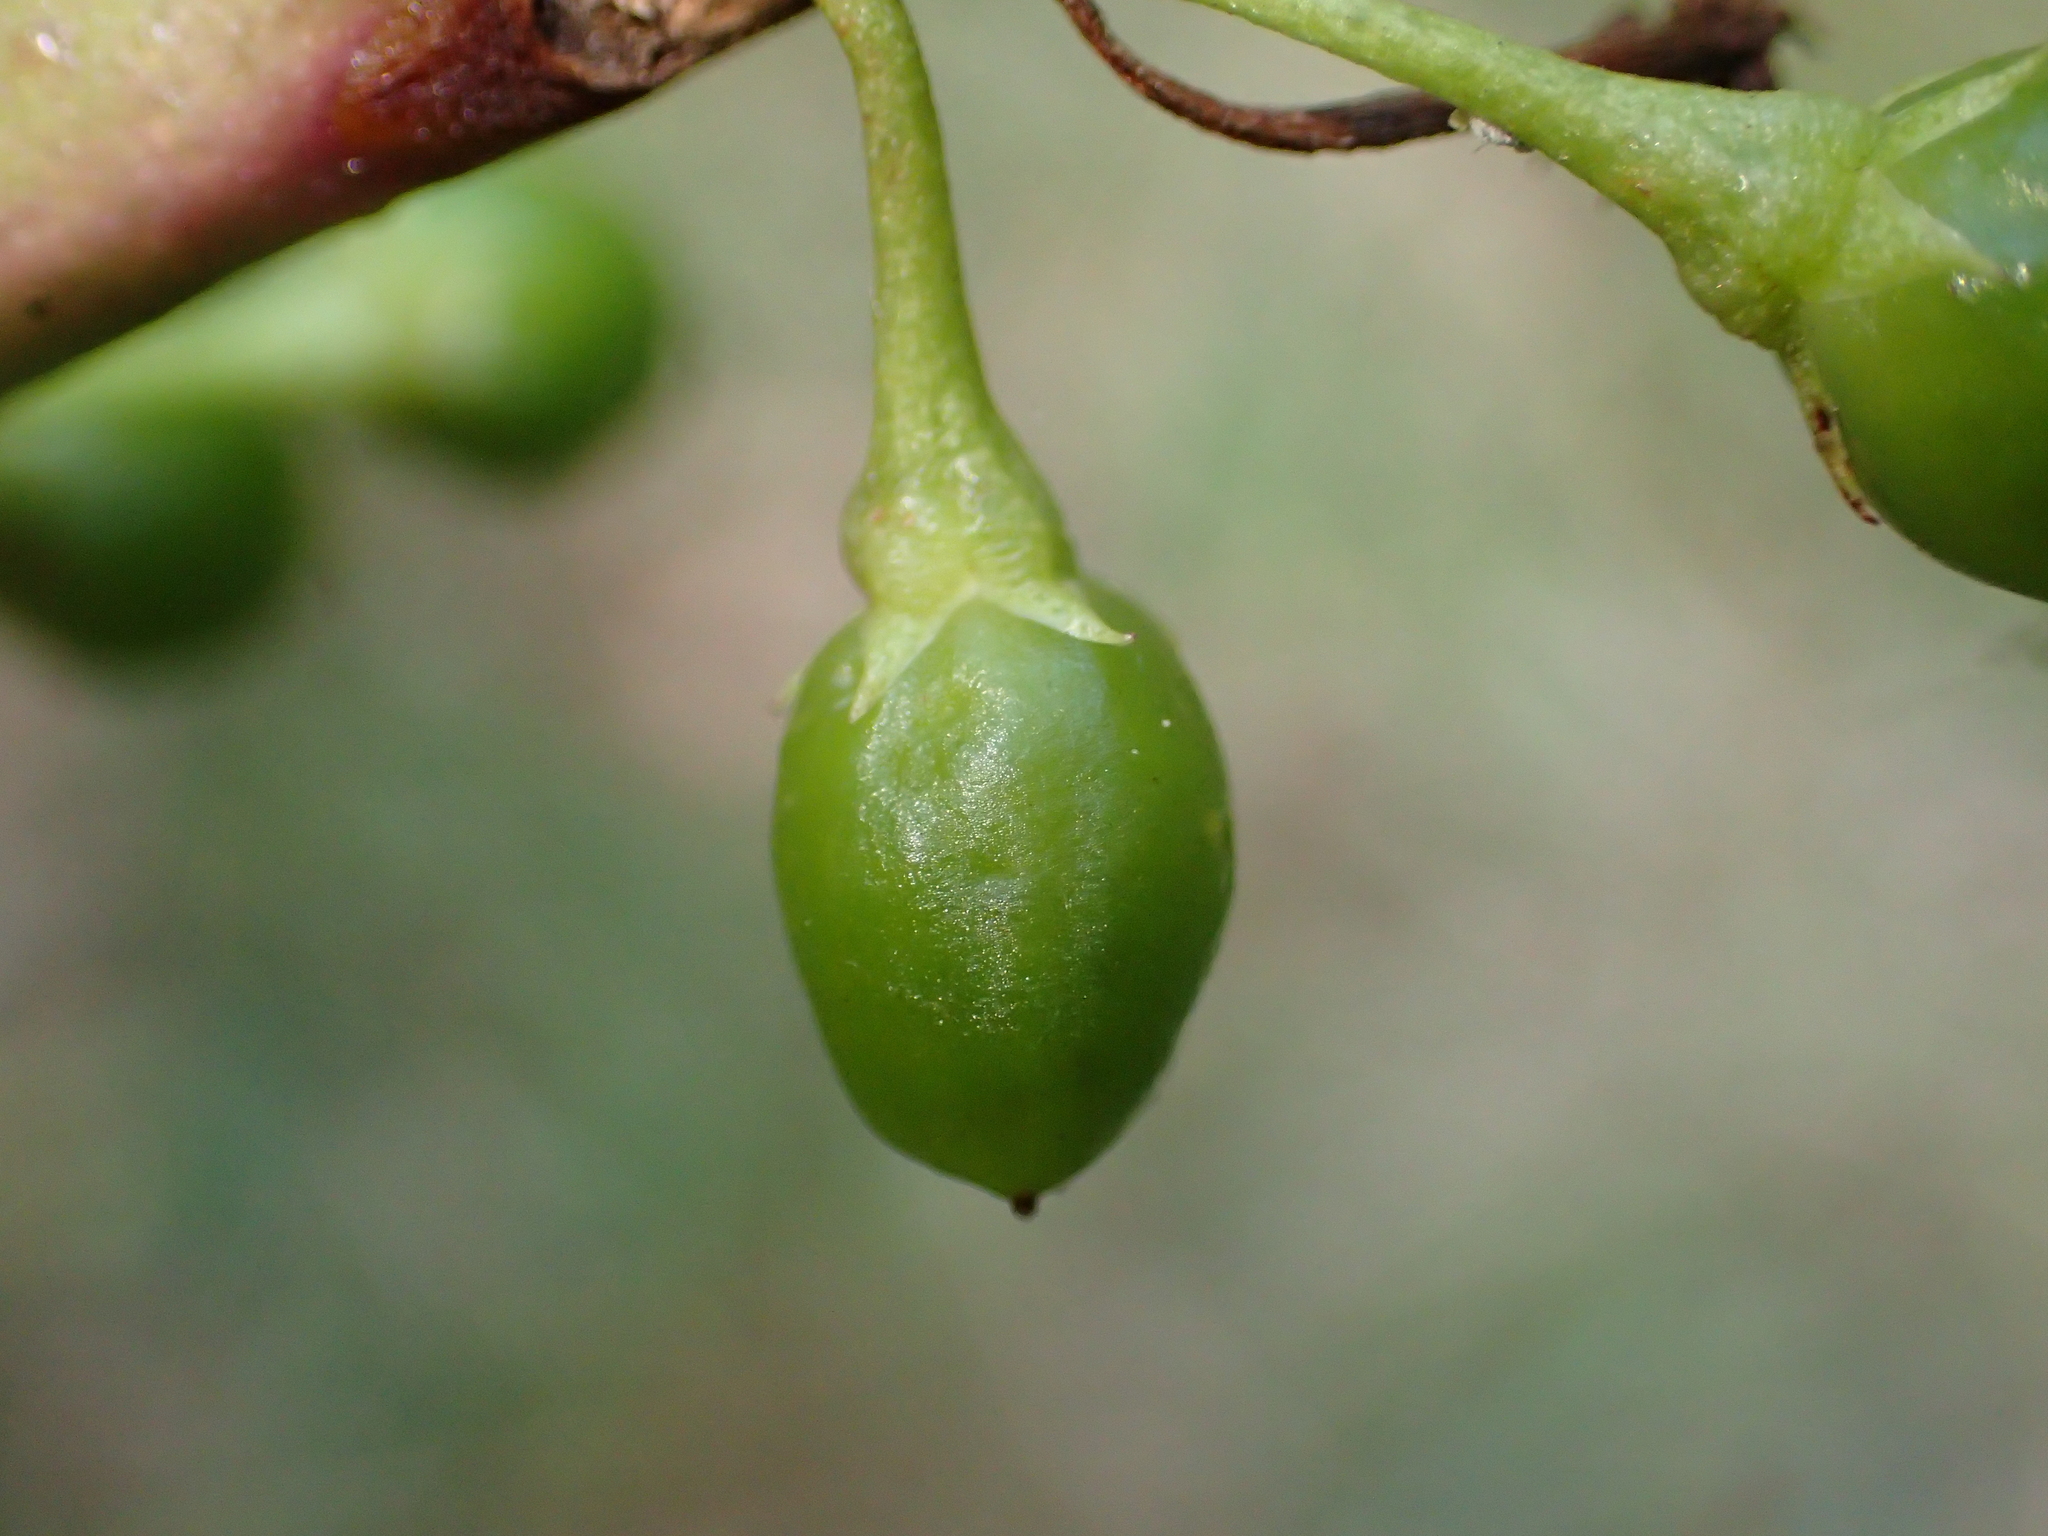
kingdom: Plantae
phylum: Tracheophyta
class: Magnoliopsida
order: Lamiales
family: Scrophulariaceae
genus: Myoporum
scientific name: Myoporum laetum
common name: Ngaio tree
